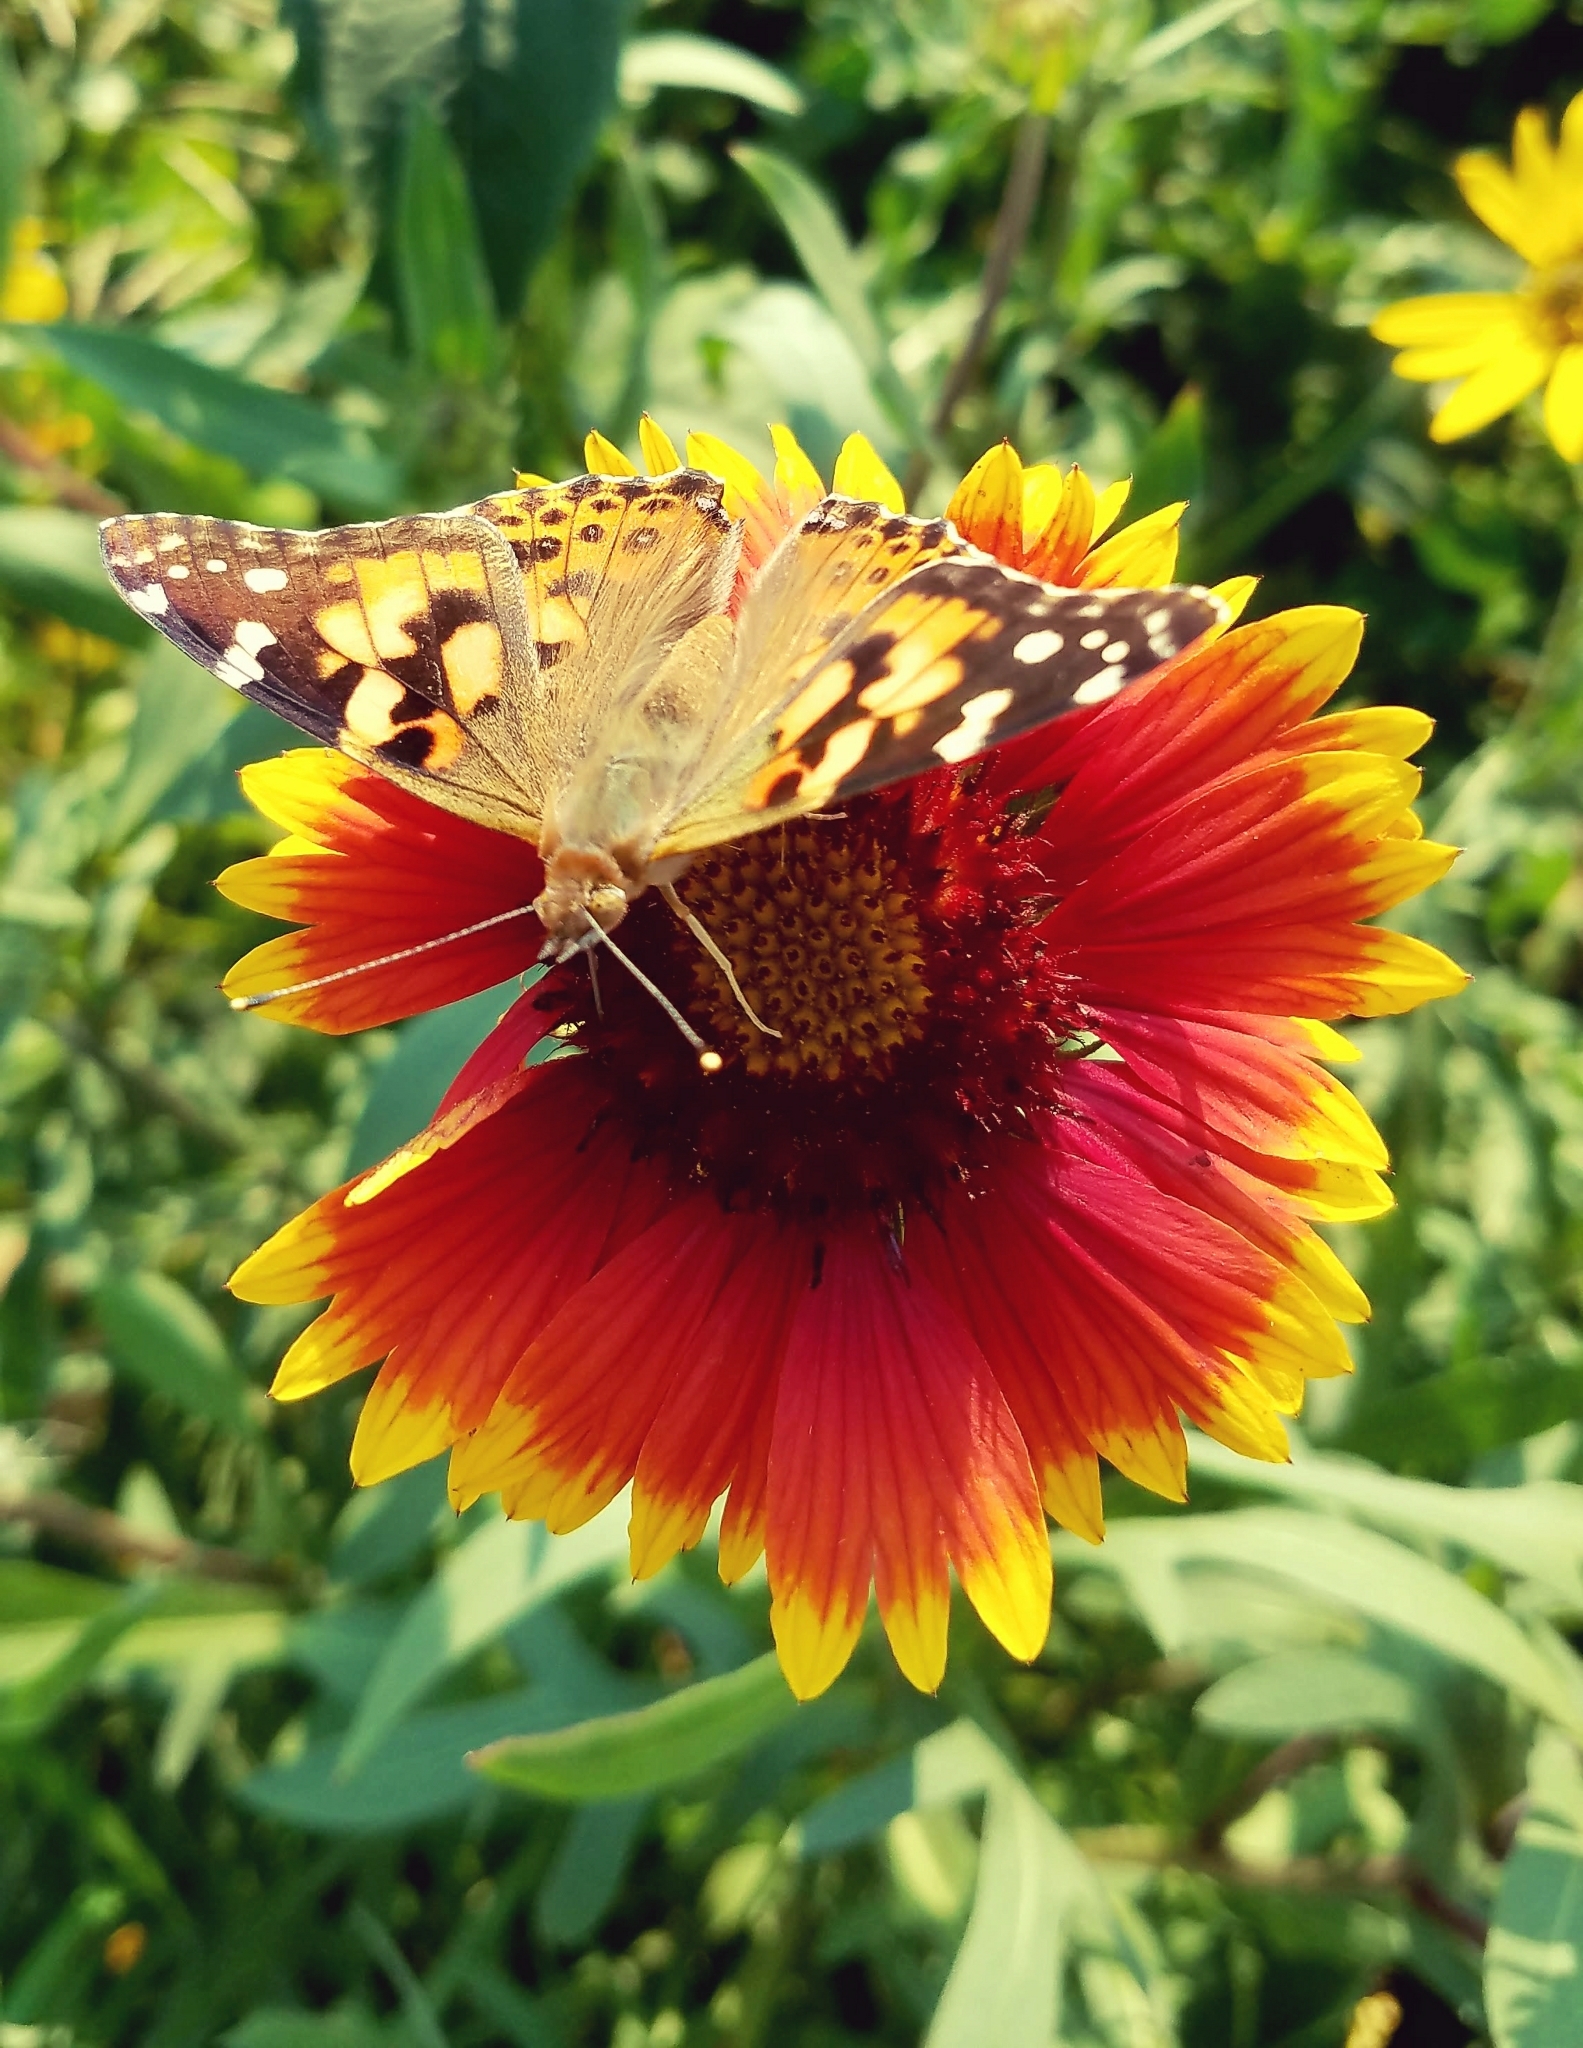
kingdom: Animalia
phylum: Arthropoda
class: Insecta
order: Lepidoptera
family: Nymphalidae
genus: Vanessa
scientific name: Vanessa cardui
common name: Painted lady
